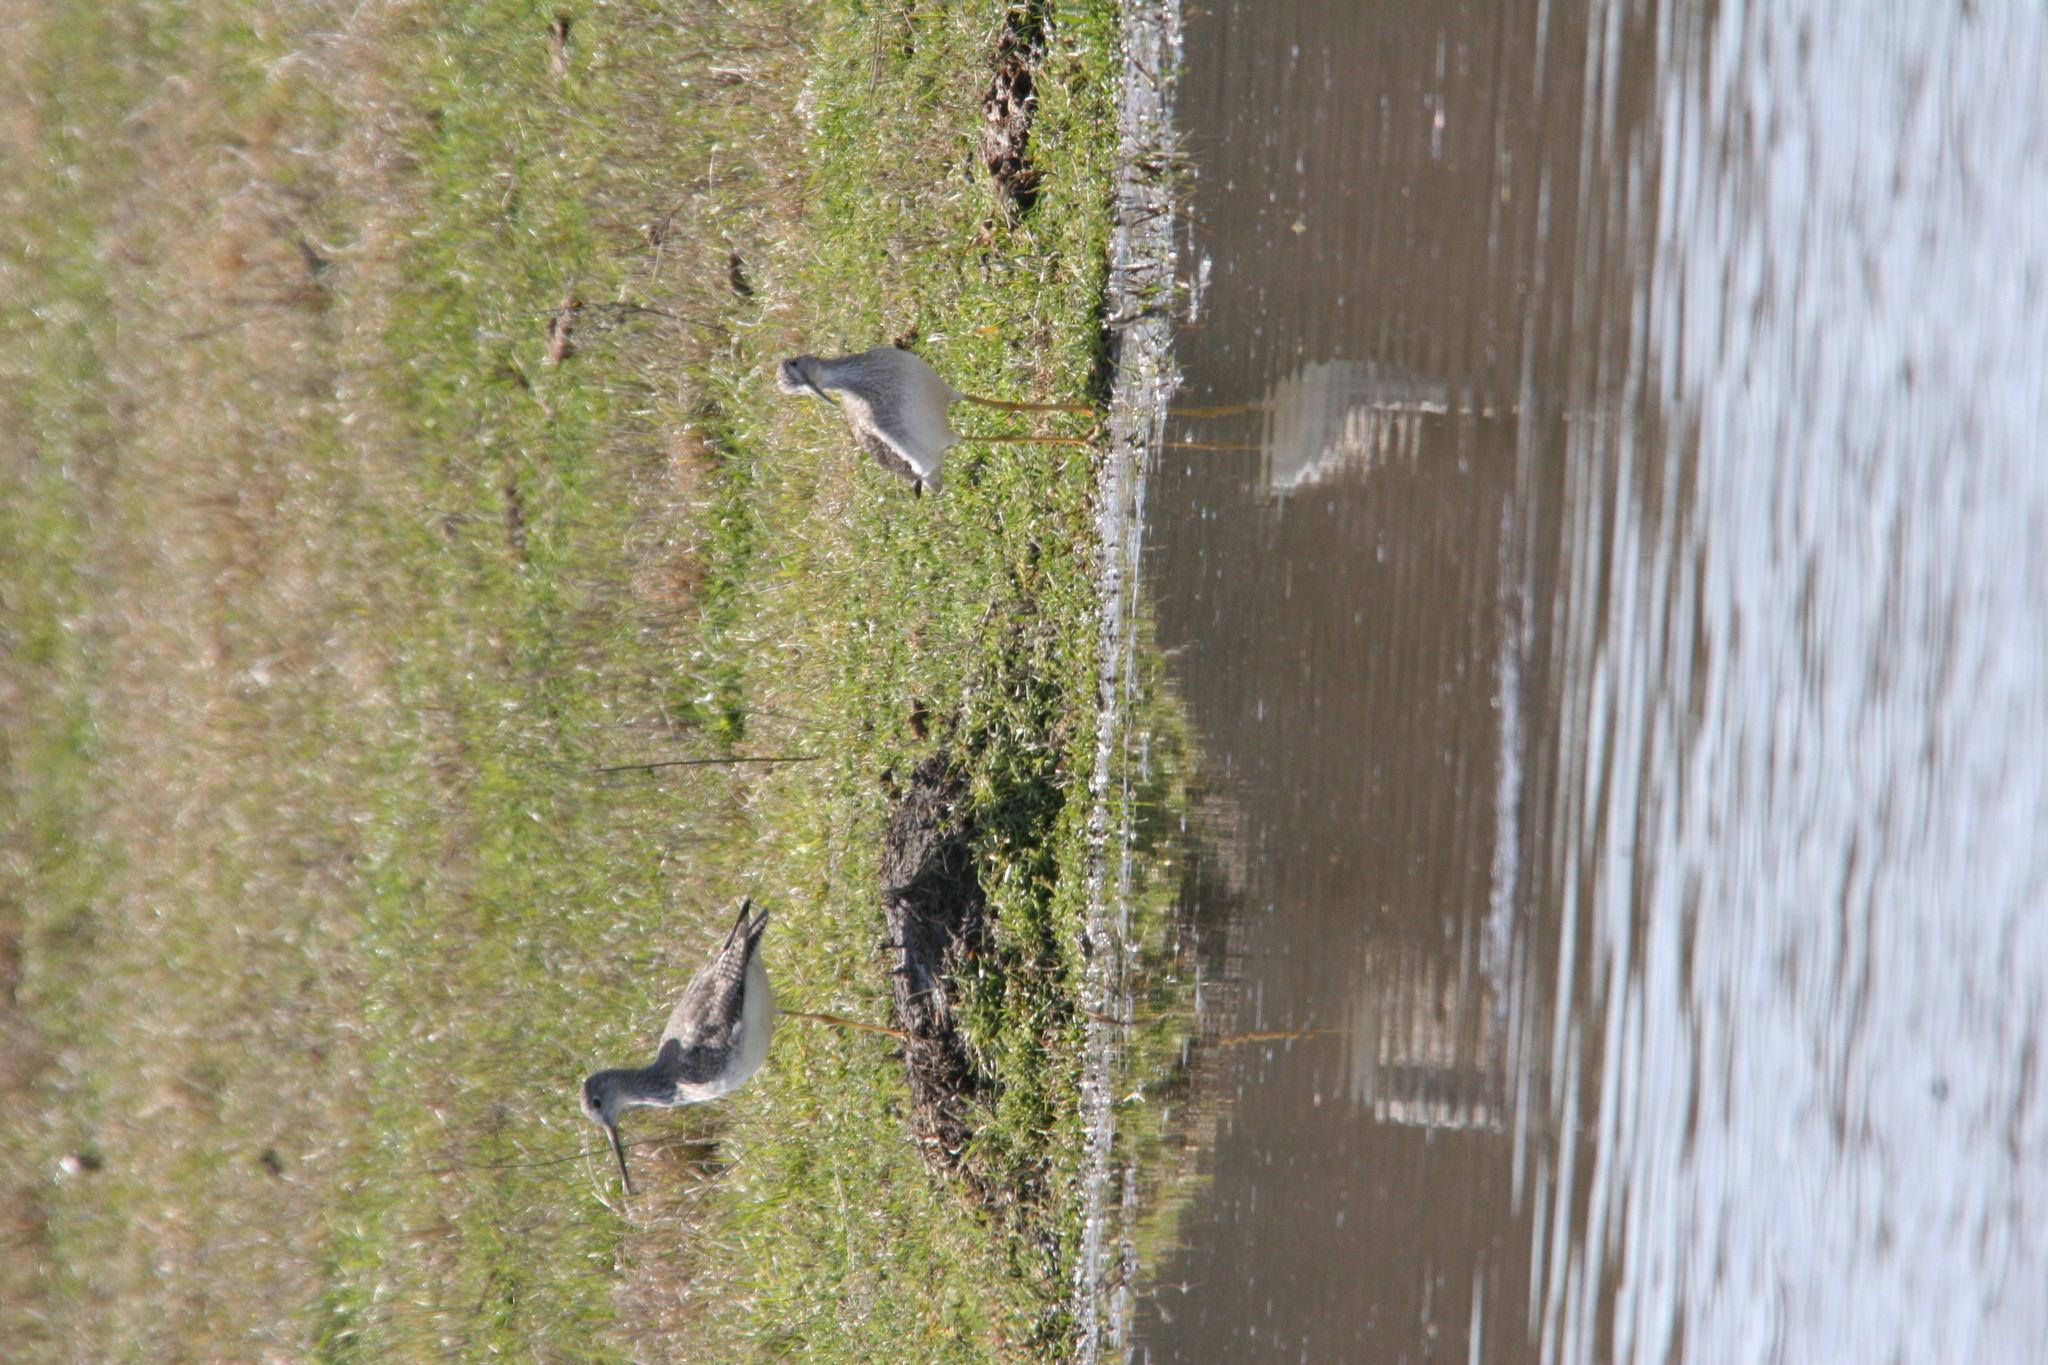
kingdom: Animalia
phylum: Chordata
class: Aves
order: Charadriiformes
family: Scolopacidae
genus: Tringa
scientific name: Tringa melanoleuca
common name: Greater yellowlegs
